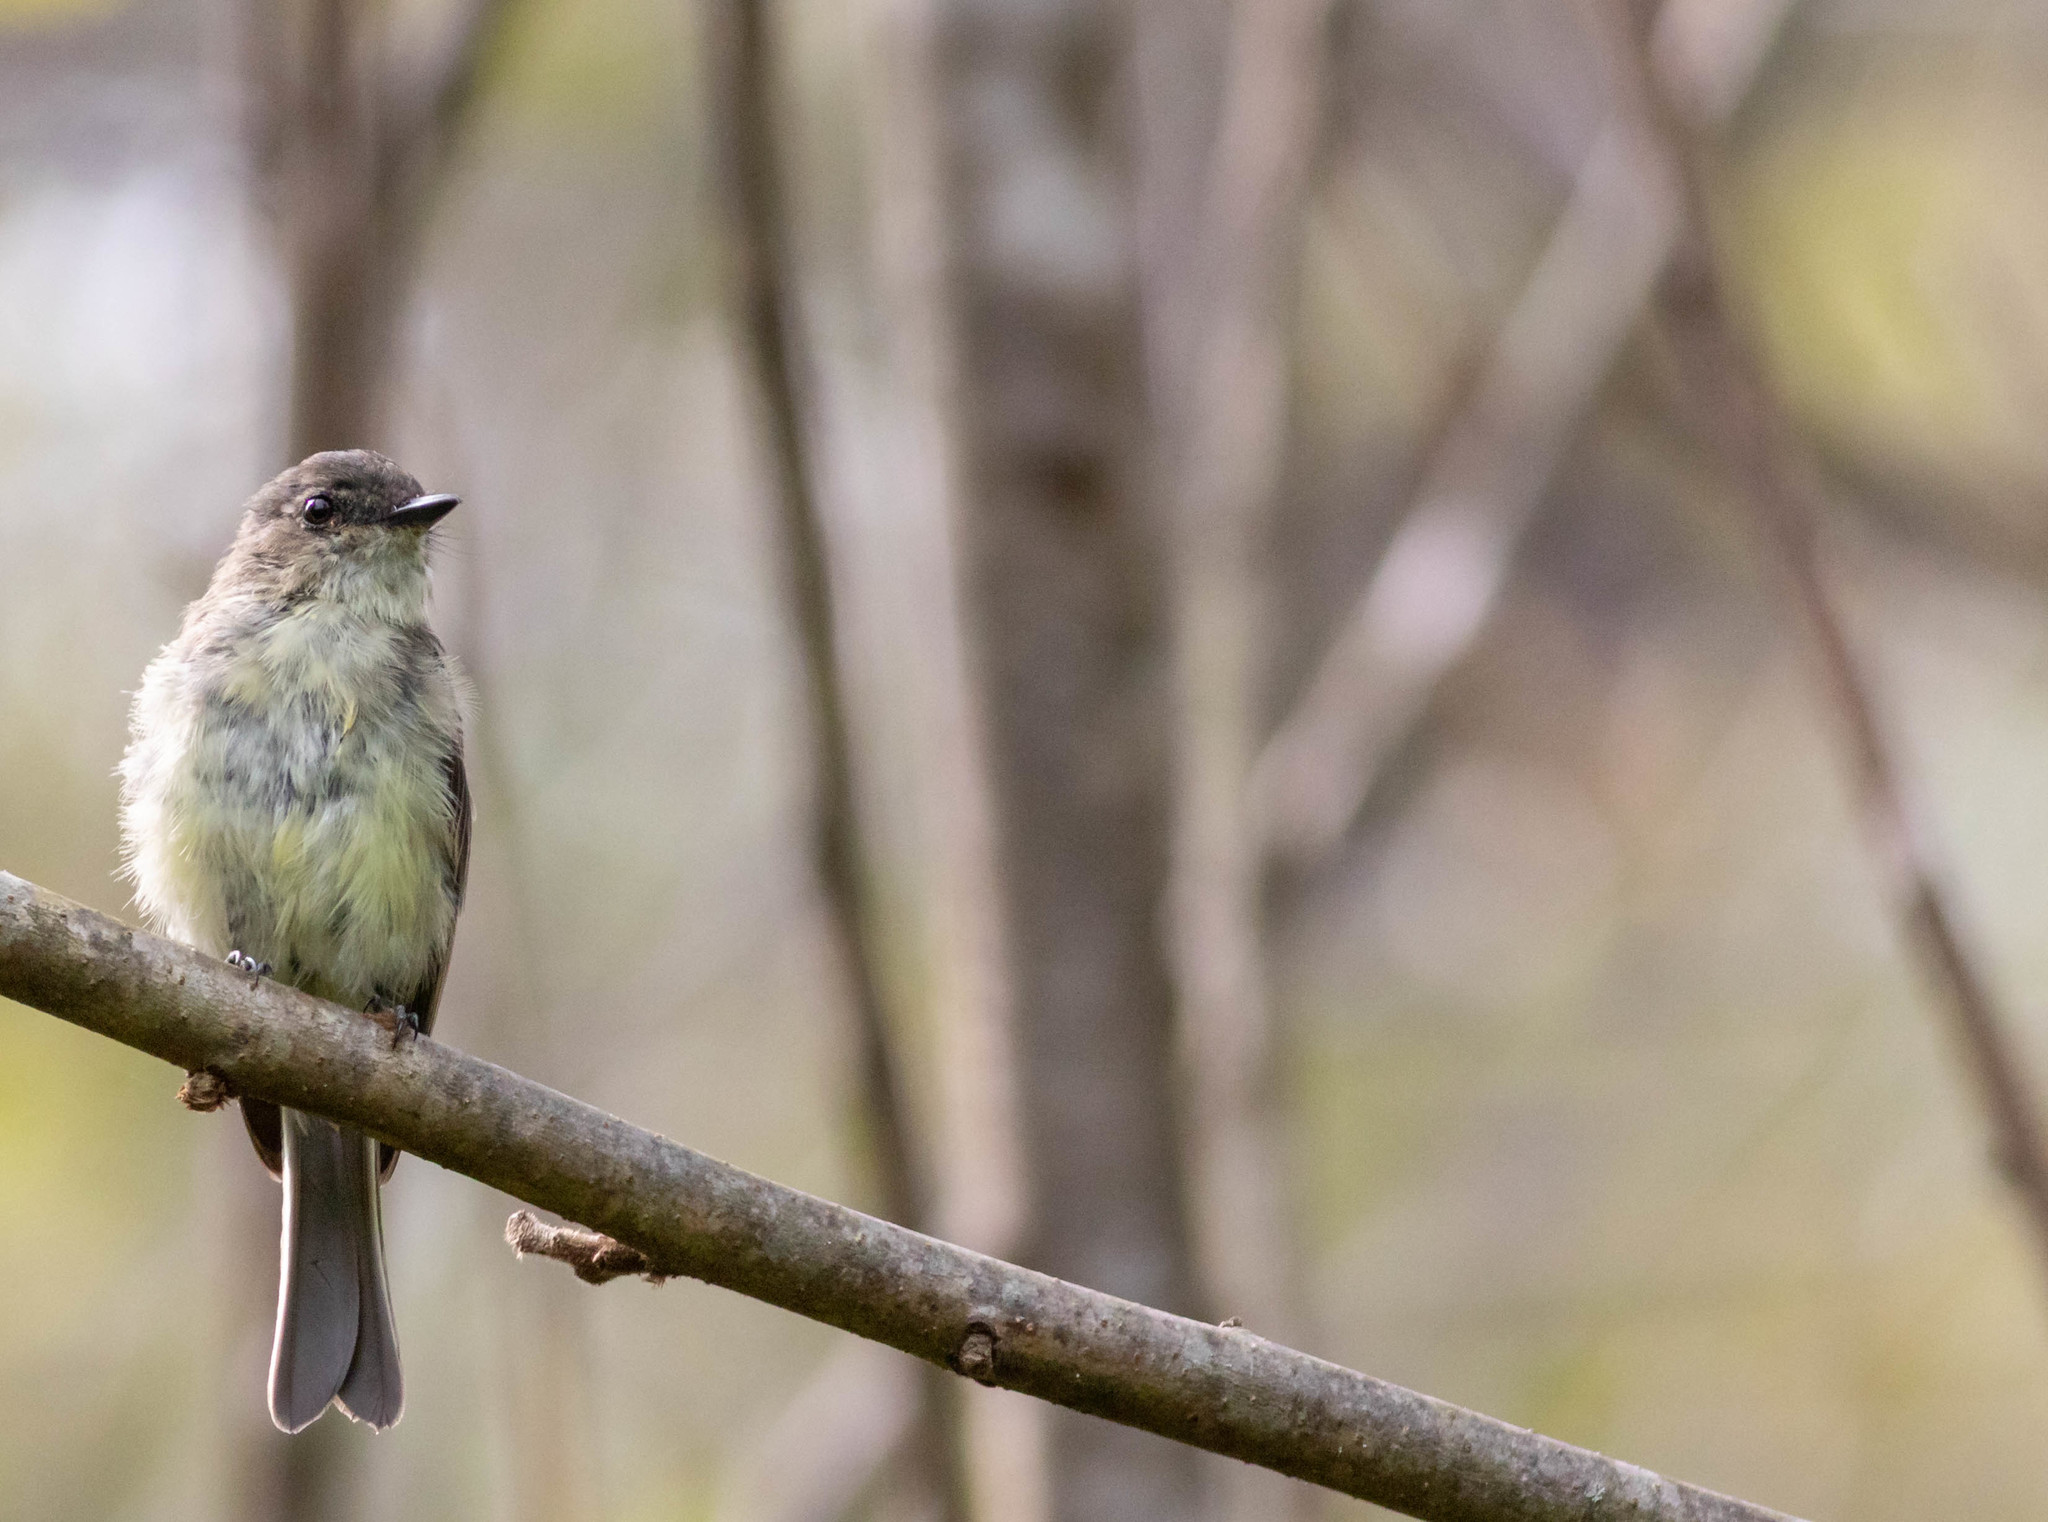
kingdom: Animalia
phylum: Chordata
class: Aves
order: Passeriformes
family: Tyrannidae
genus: Sayornis
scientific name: Sayornis phoebe
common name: Eastern phoebe
